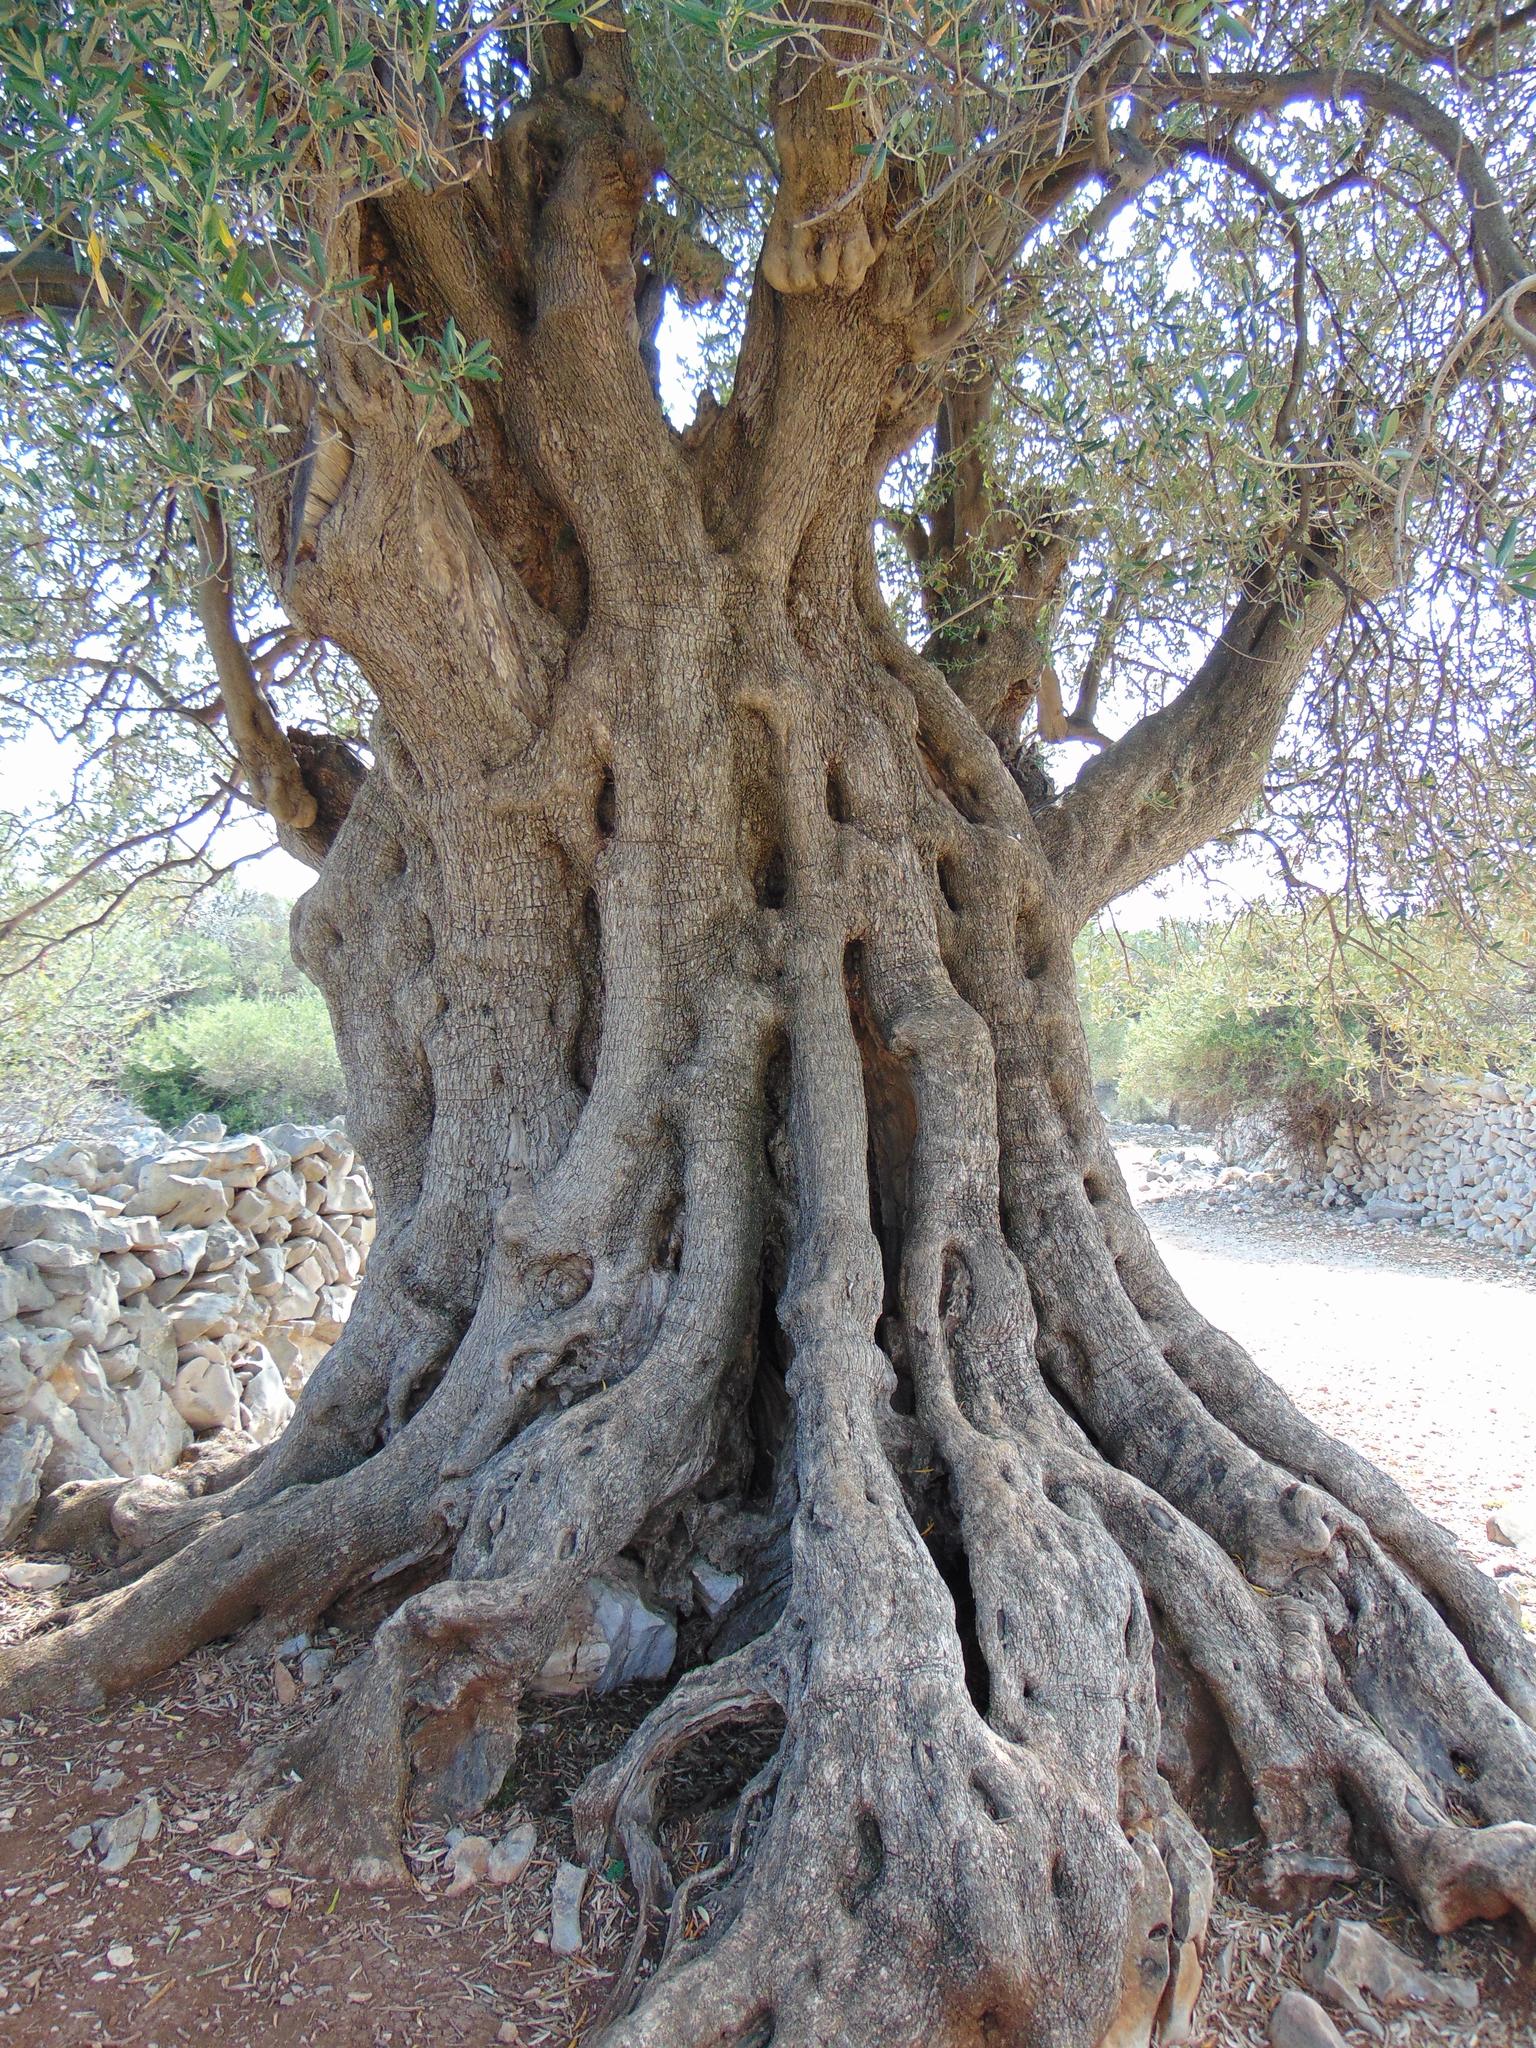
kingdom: Plantae
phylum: Tracheophyta
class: Magnoliopsida
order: Lamiales
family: Oleaceae
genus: Olea
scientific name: Olea europaea
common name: Olive
